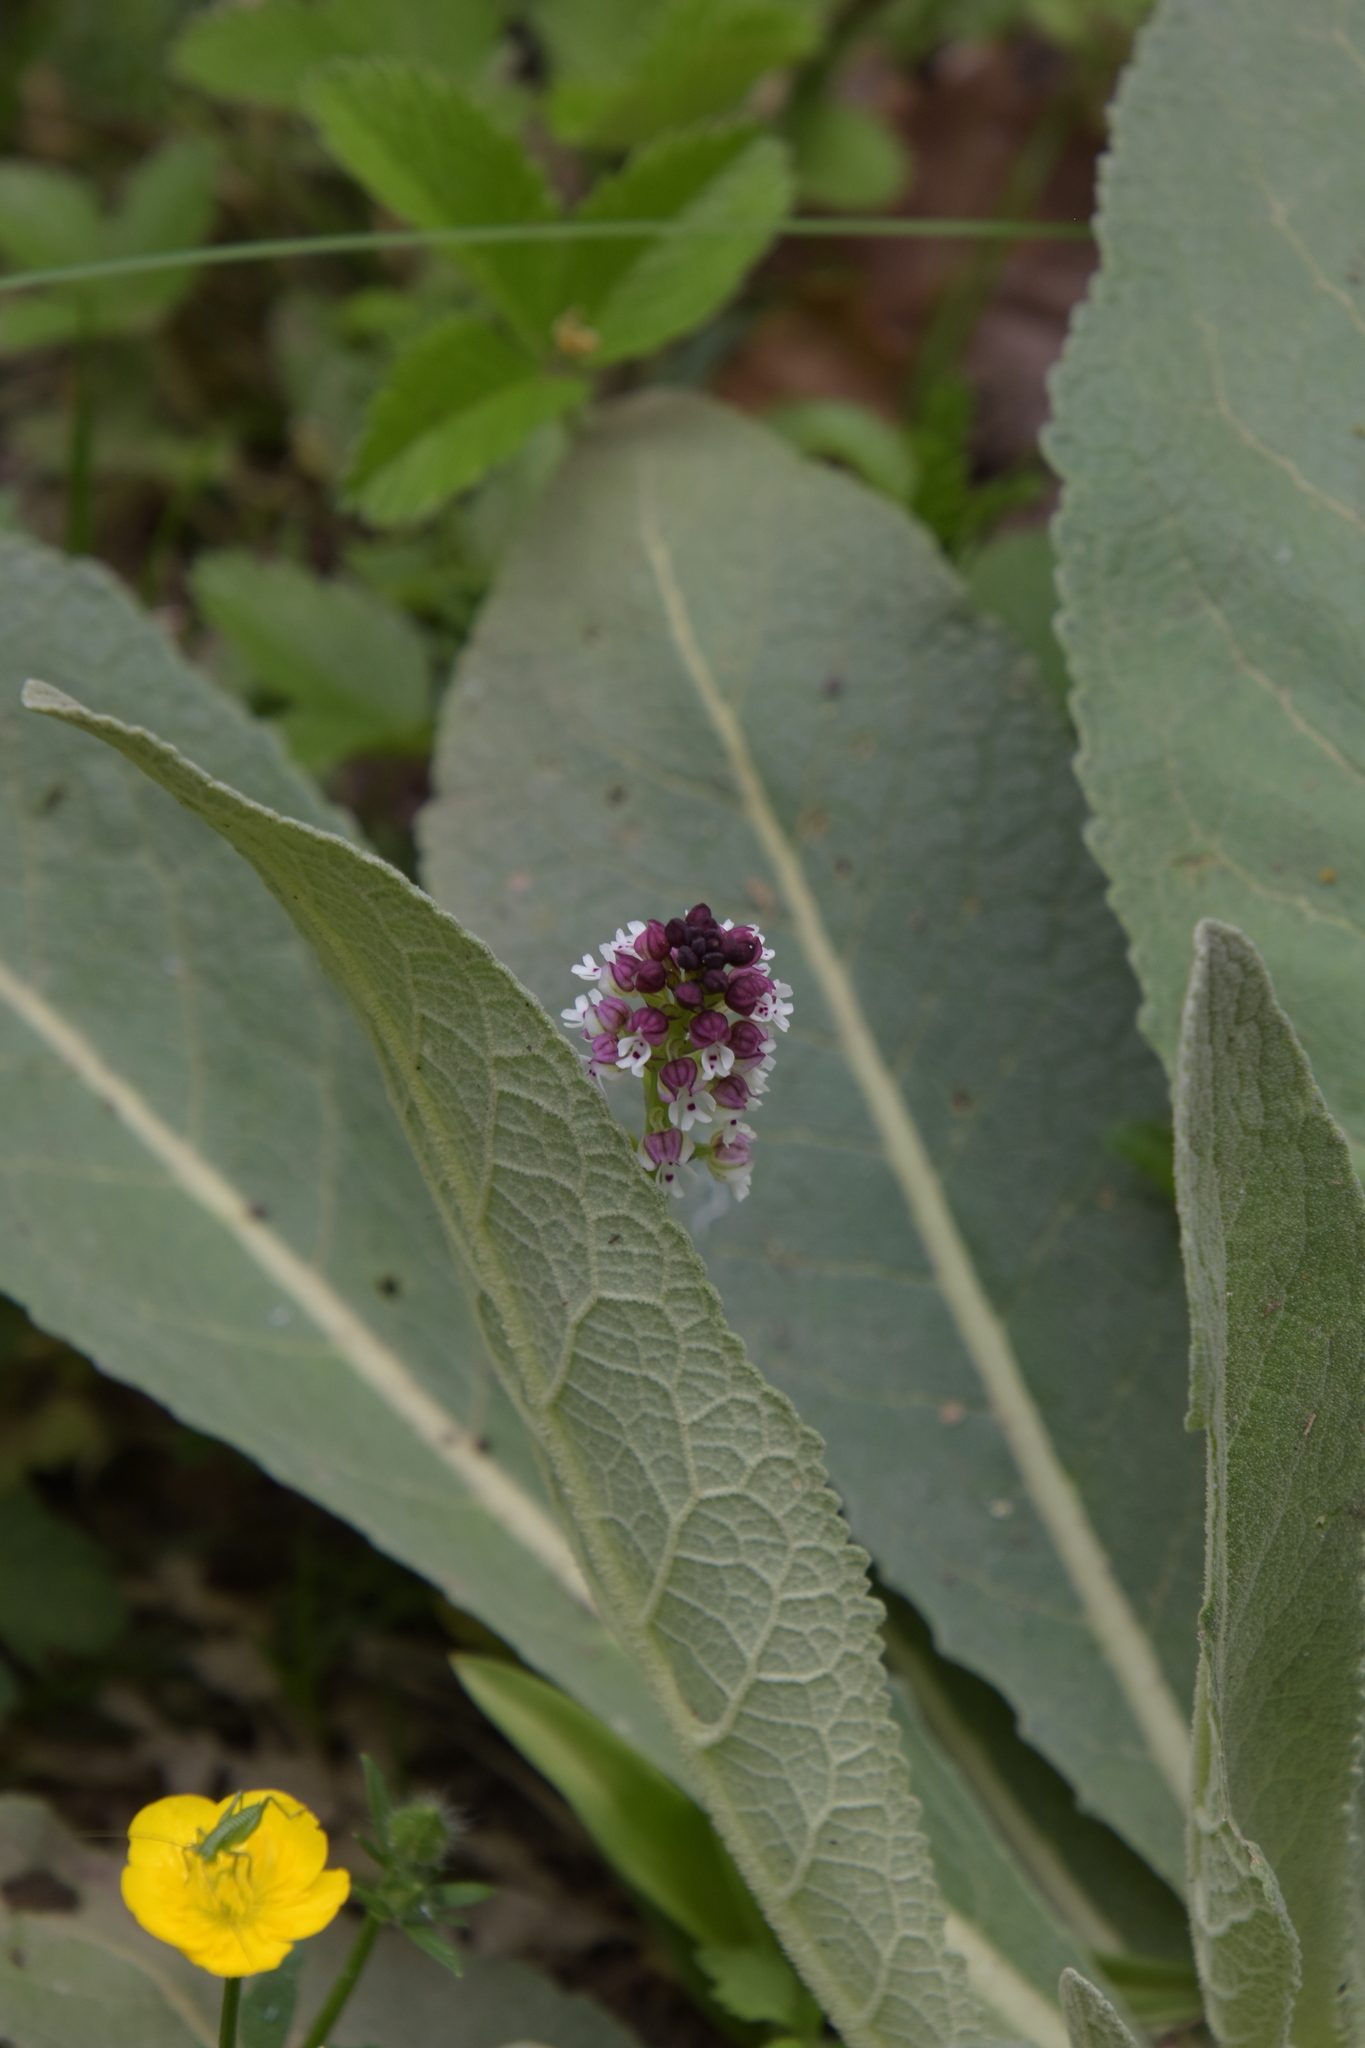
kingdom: Plantae
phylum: Tracheophyta
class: Liliopsida
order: Asparagales
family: Orchidaceae
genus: Neotinea
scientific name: Neotinea ustulata
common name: Burnt orchid
